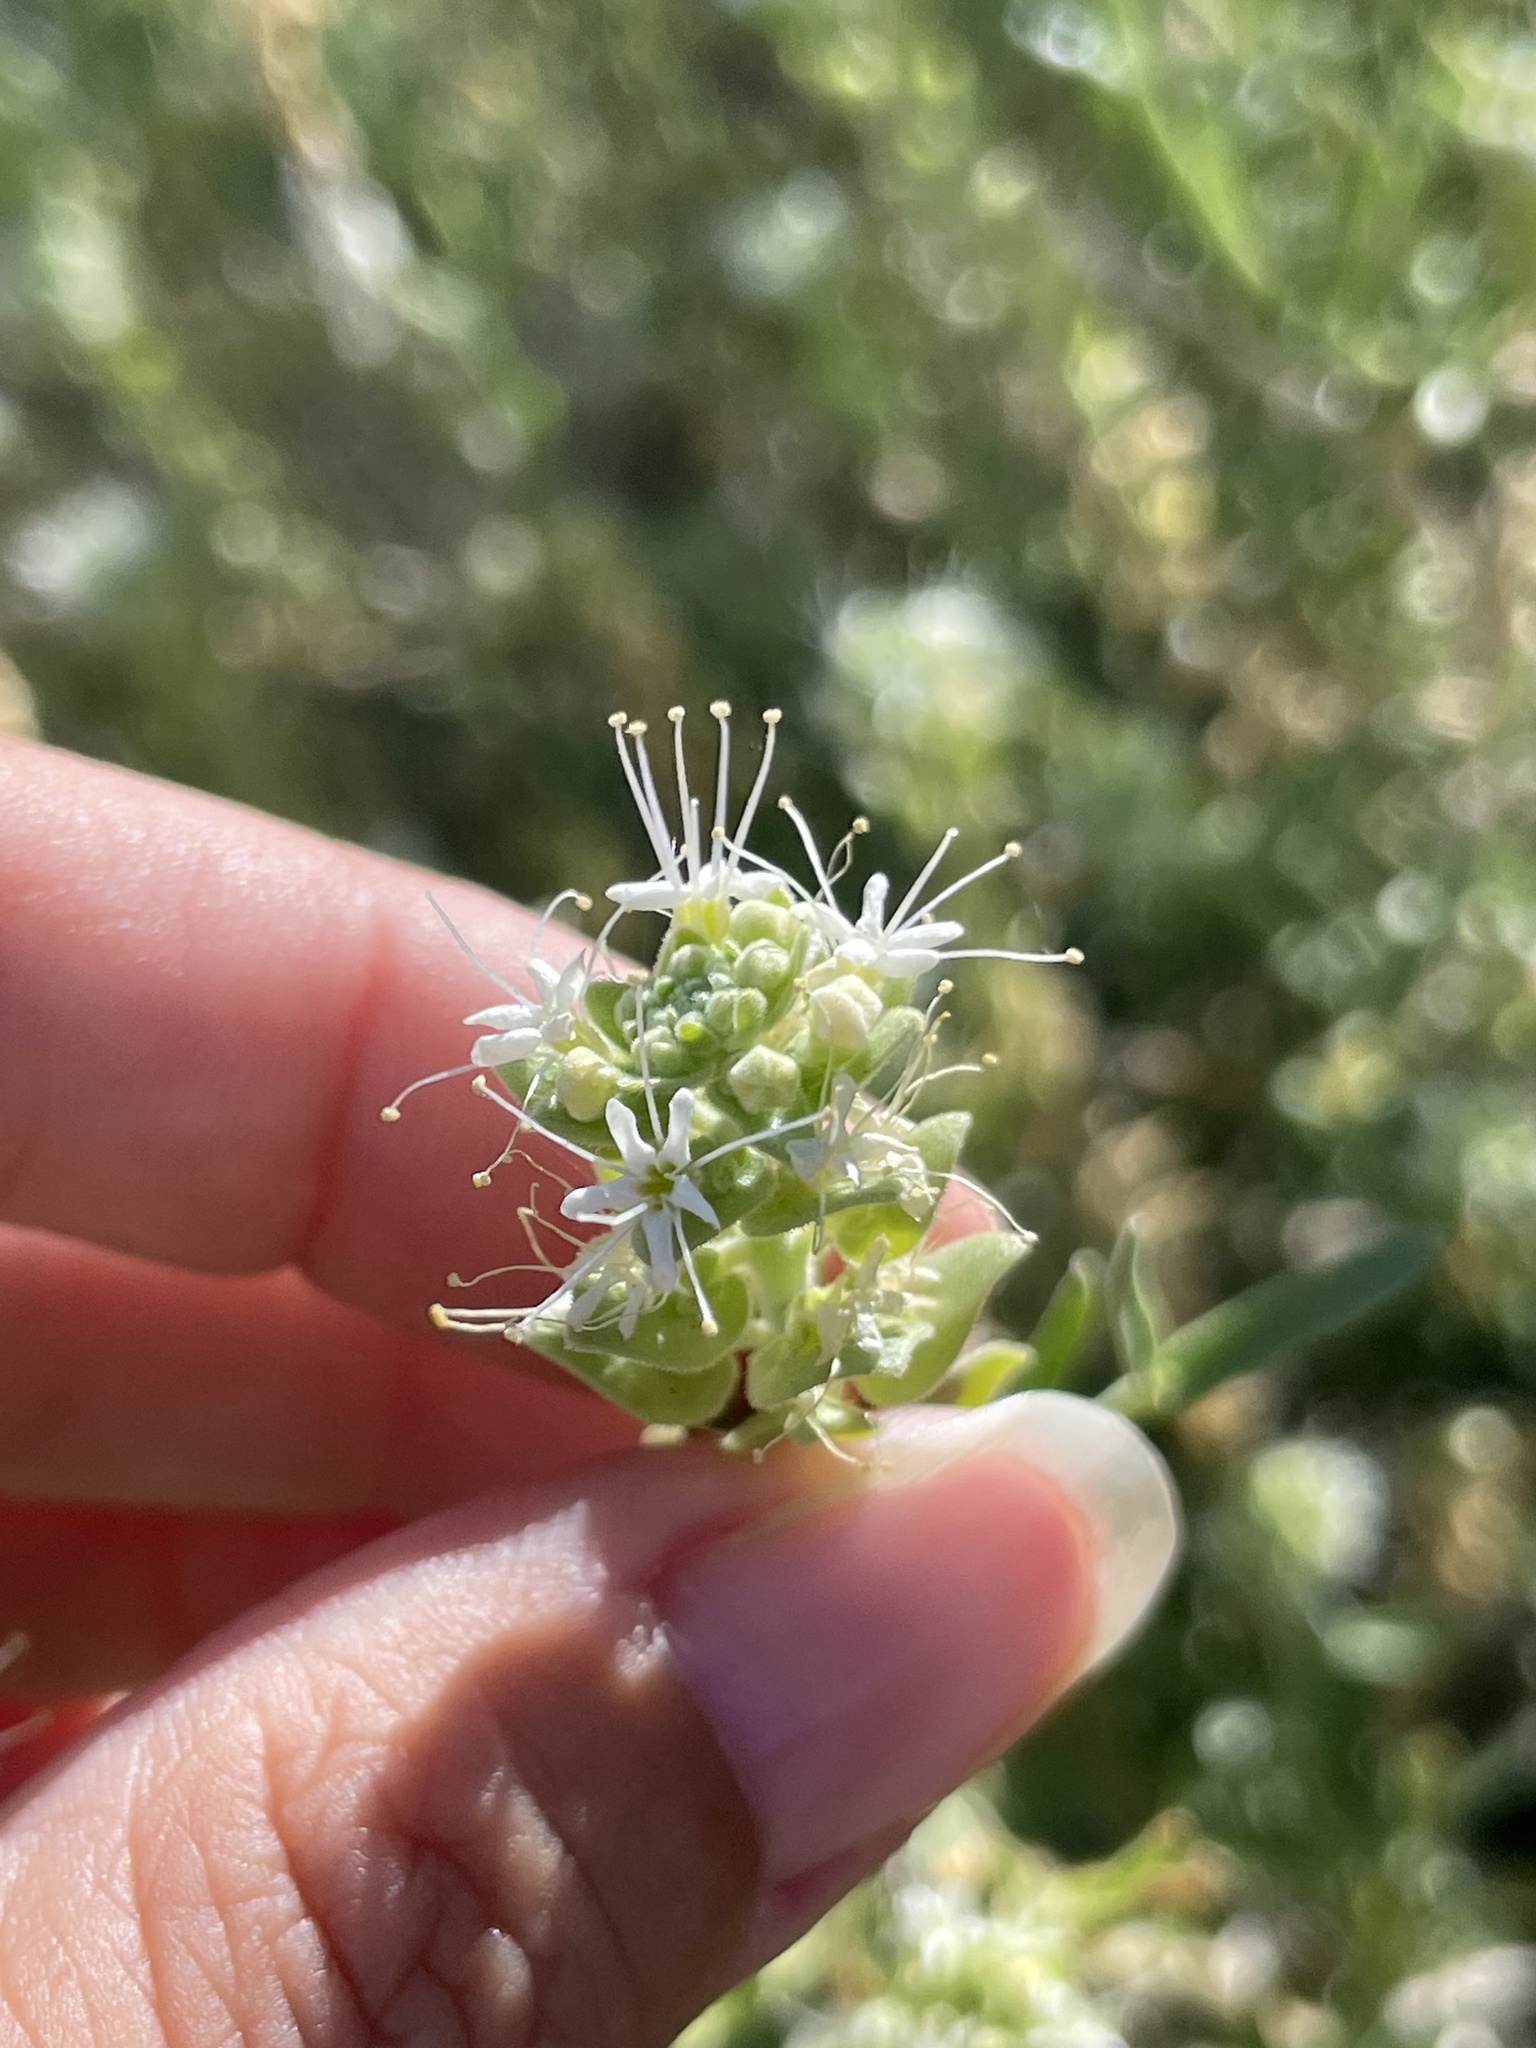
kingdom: Plantae
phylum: Tracheophyta
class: Magnoliopsida
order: Cornales
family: Loasaceae
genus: Petalonyx
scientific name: Petalonyx linearis
